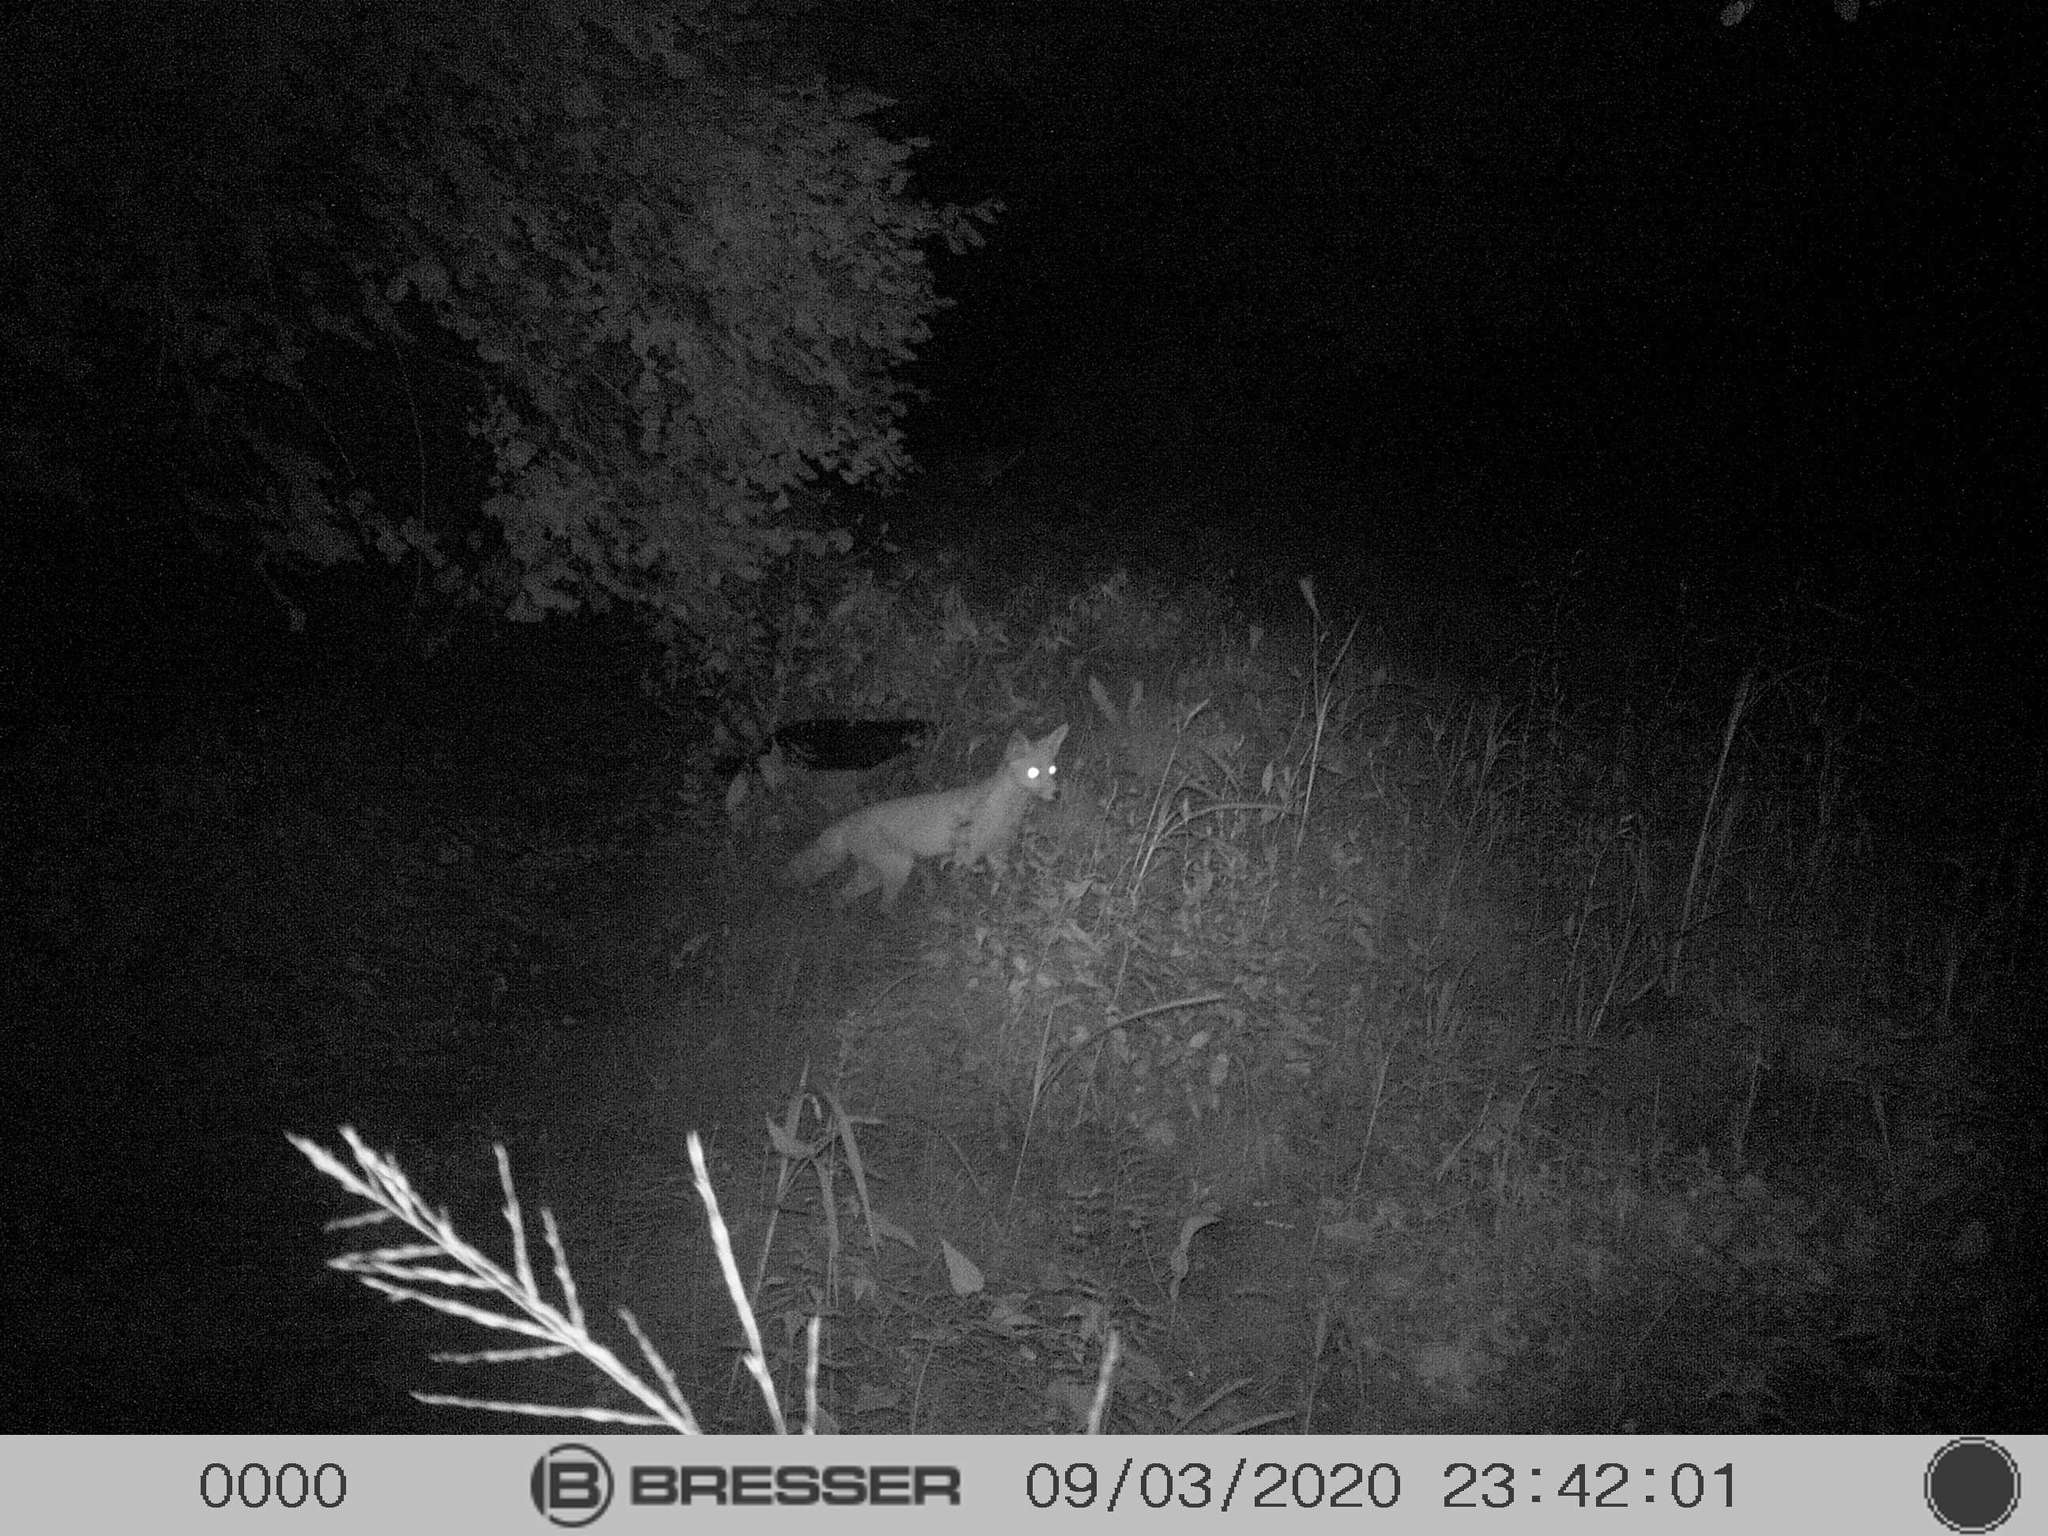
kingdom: Animalia
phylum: Chordata
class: Mammalia
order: Carnivora
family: Canidae
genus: Vulpes
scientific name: Vulpes vulpes
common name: Red fox
